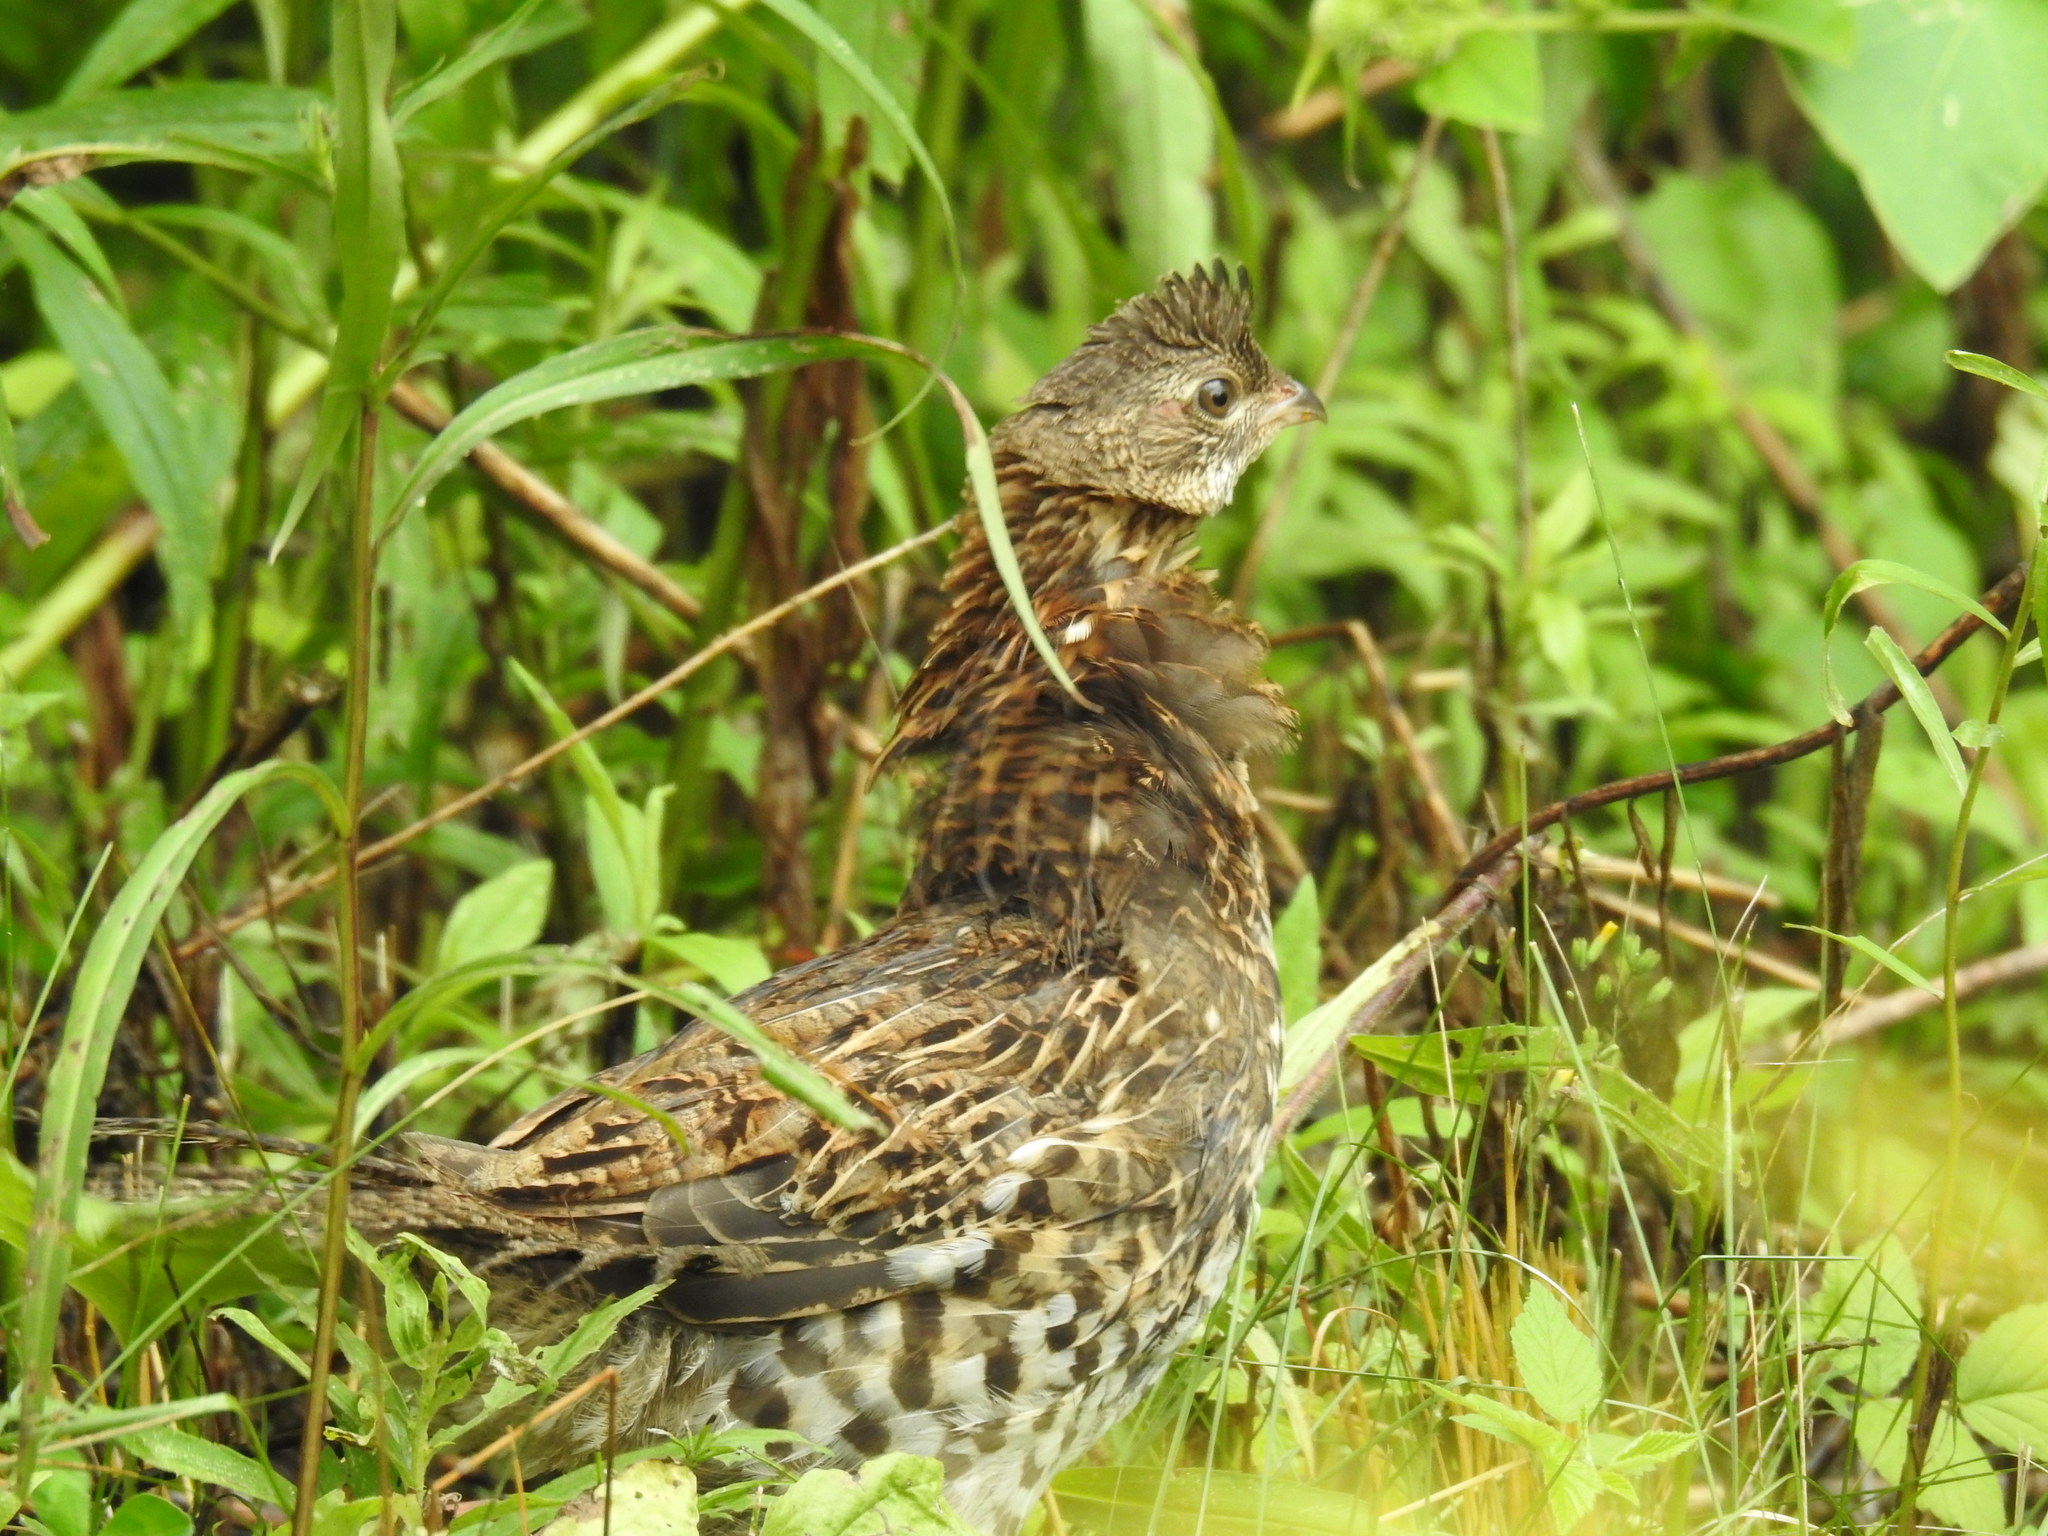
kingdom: Animalia
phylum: Chordata
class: Aves
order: Galliformes
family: Phasianidae
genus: Bonasa
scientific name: Bonasa umbellus
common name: Ruffed grouse
